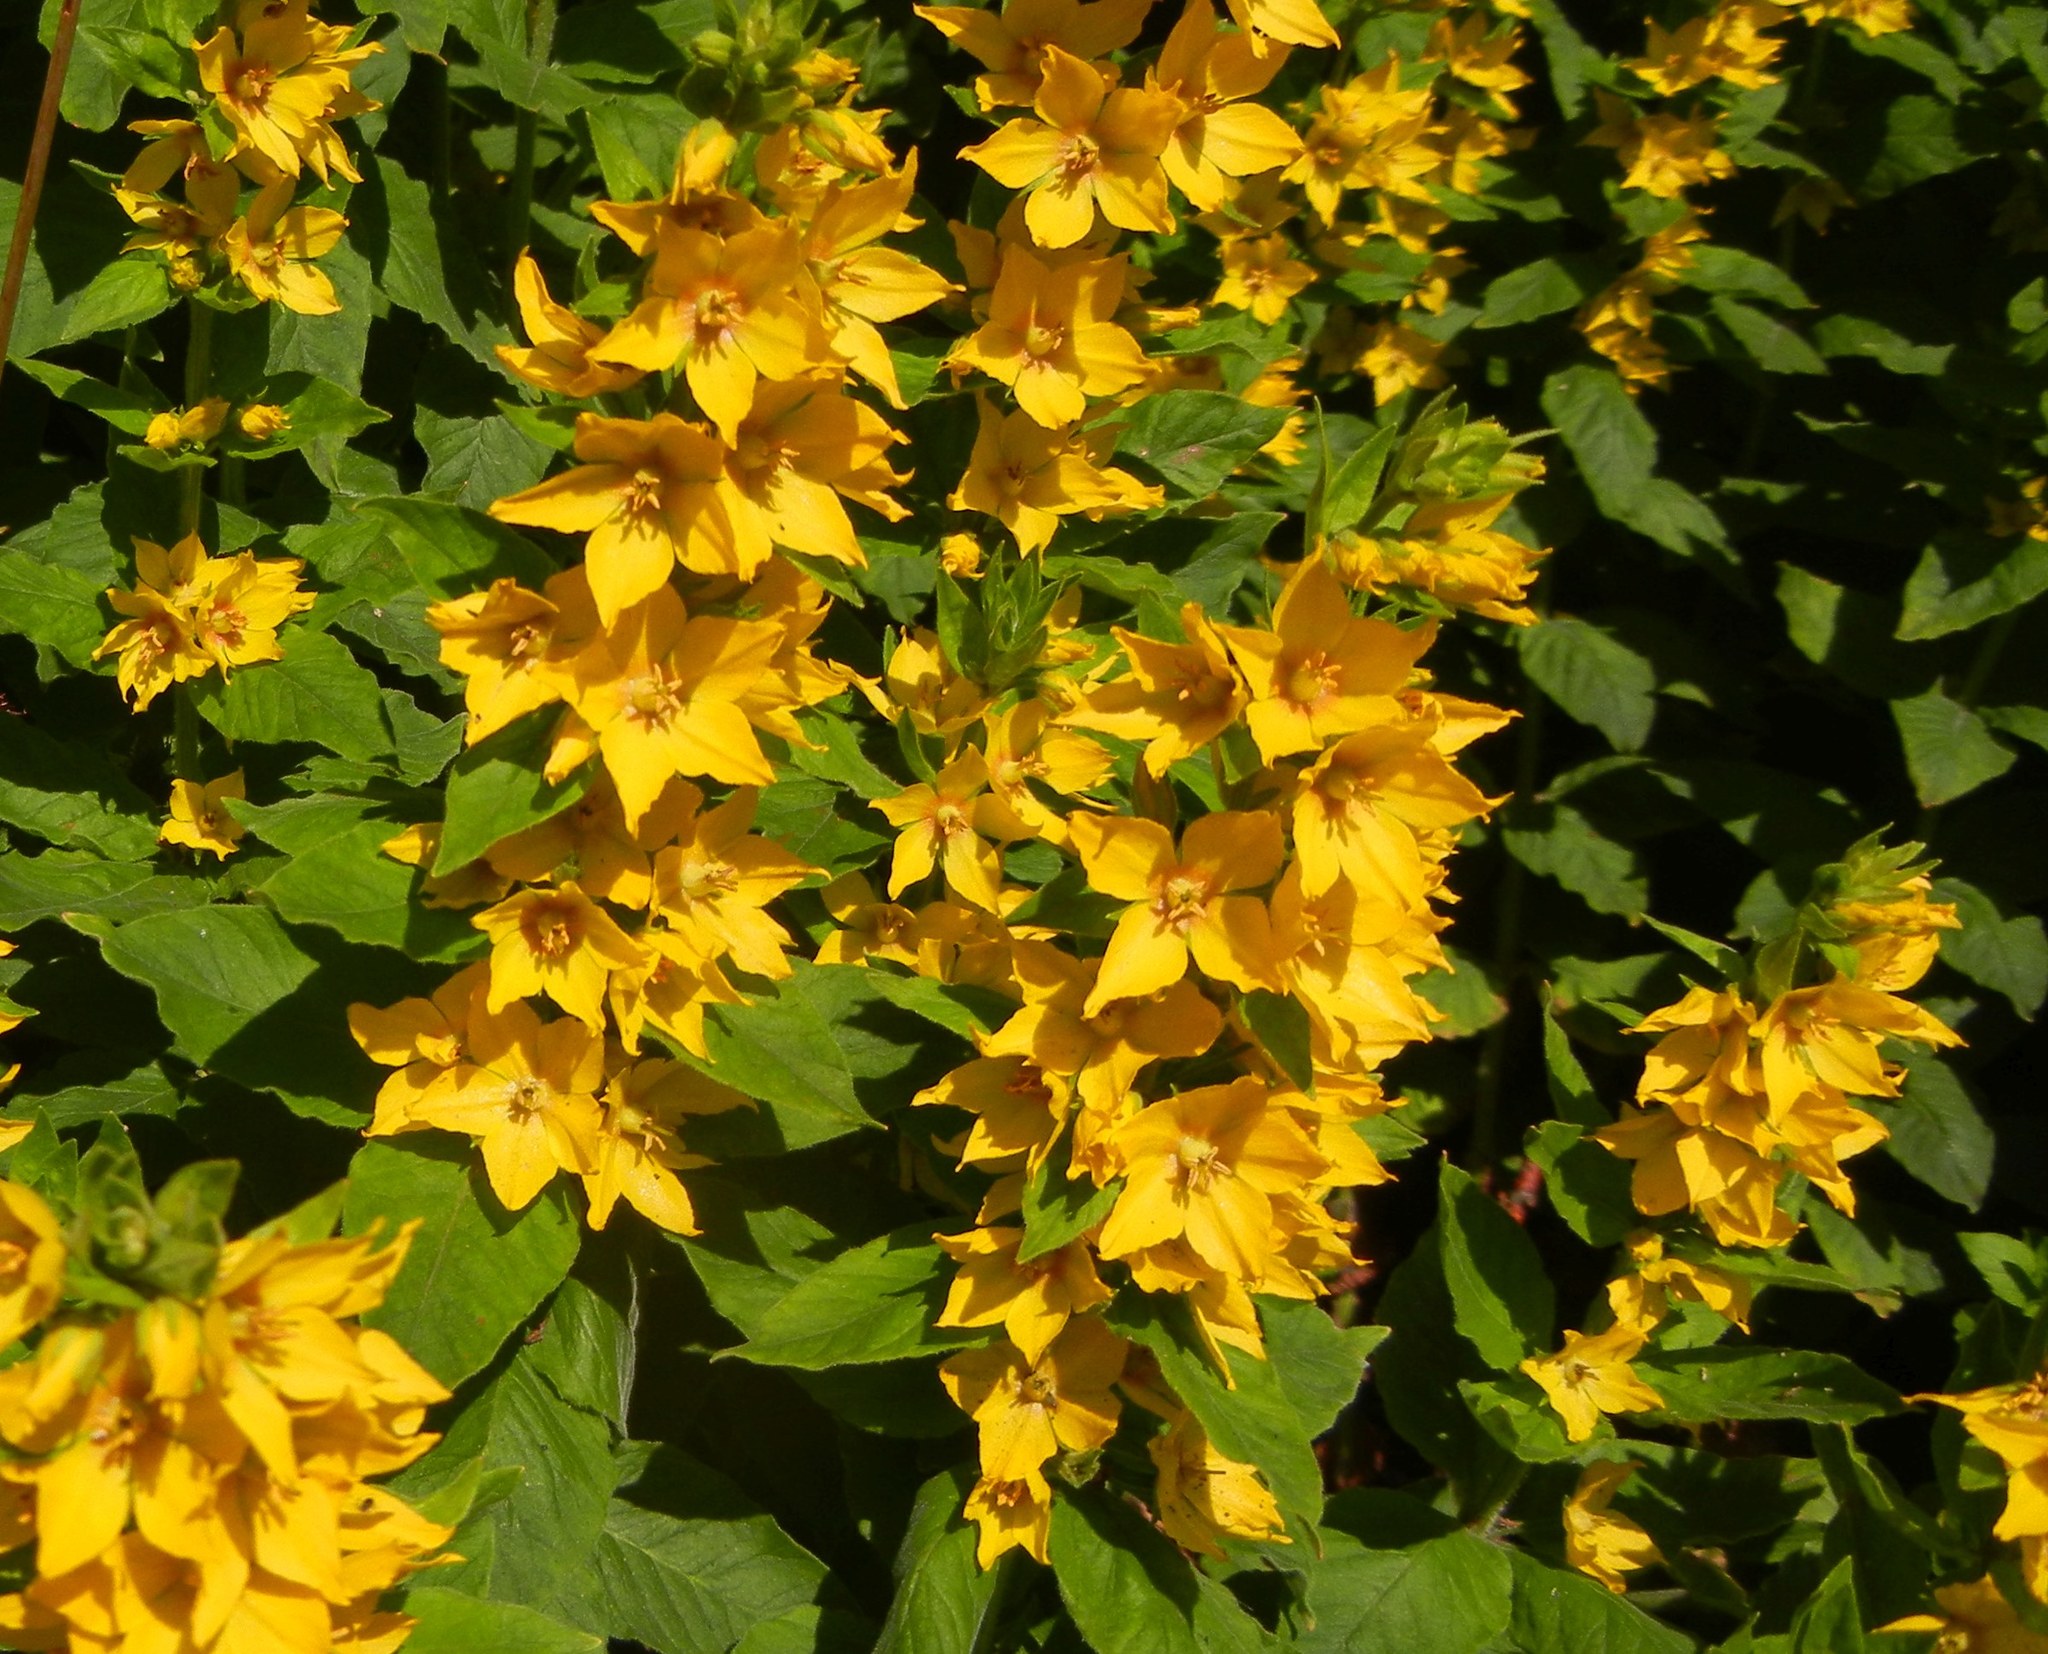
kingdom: Plantae
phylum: Tracheophyta
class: Magnoliopsida
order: Ericales
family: Primulaceae
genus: Lysimachia
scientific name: Lysimachia punctata
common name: Dotted loosestrife
